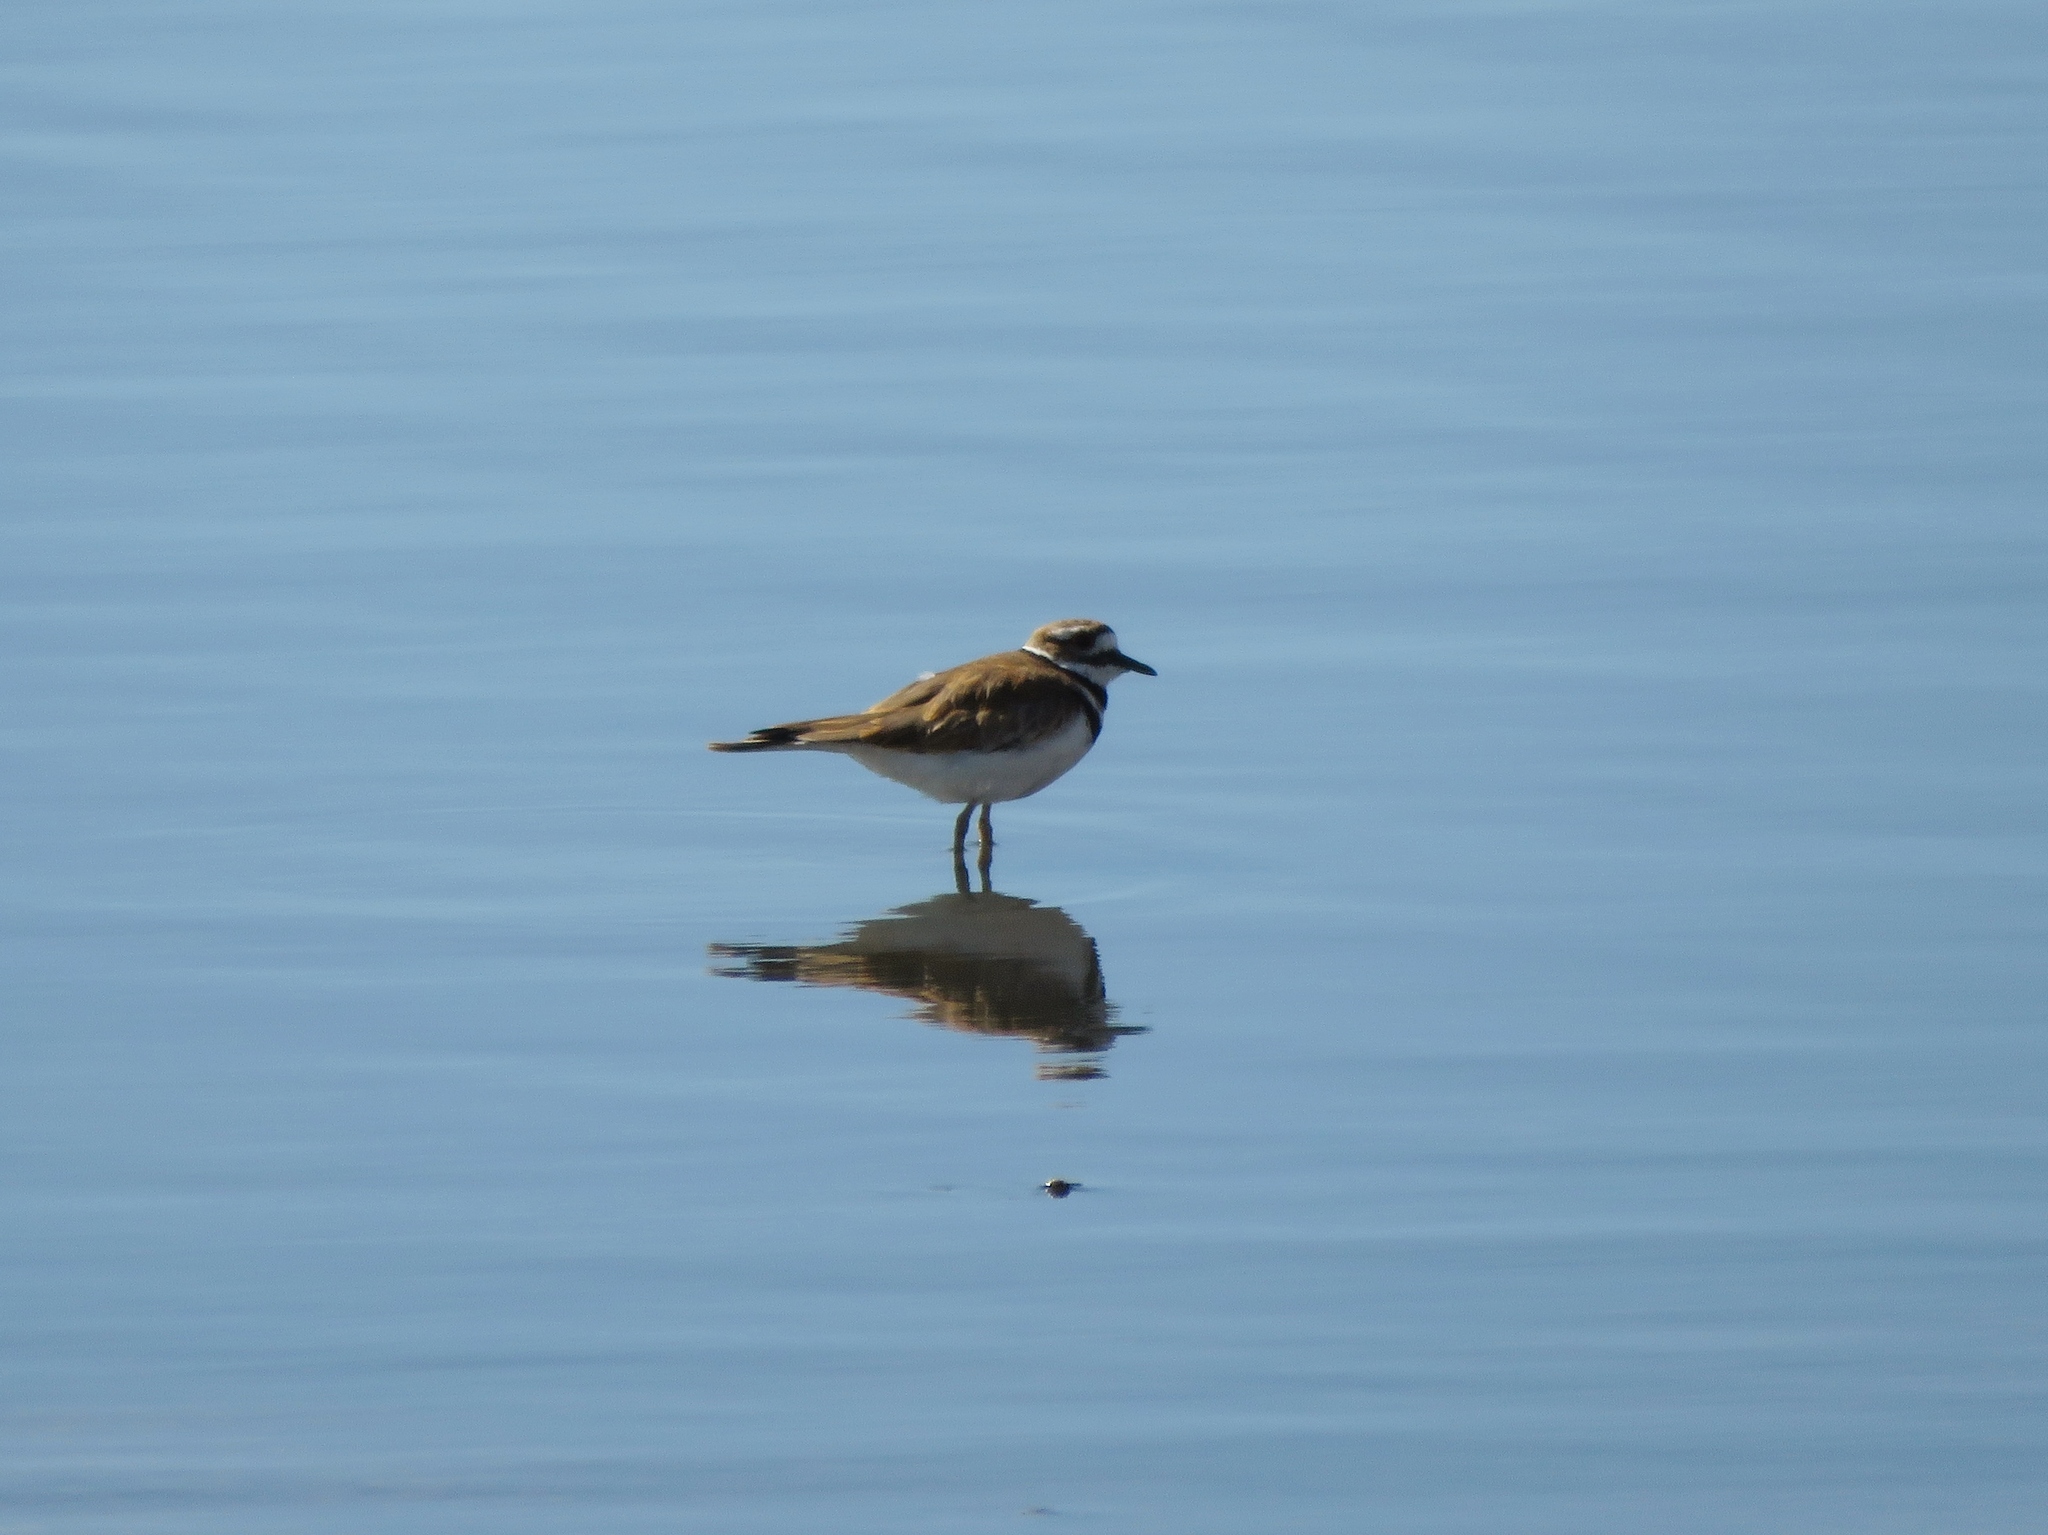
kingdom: Animalia
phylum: Chordata
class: Aves
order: Charadriiformes
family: Charadriidae
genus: Charadrius
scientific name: Charadrius vociferus
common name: Killdeer
